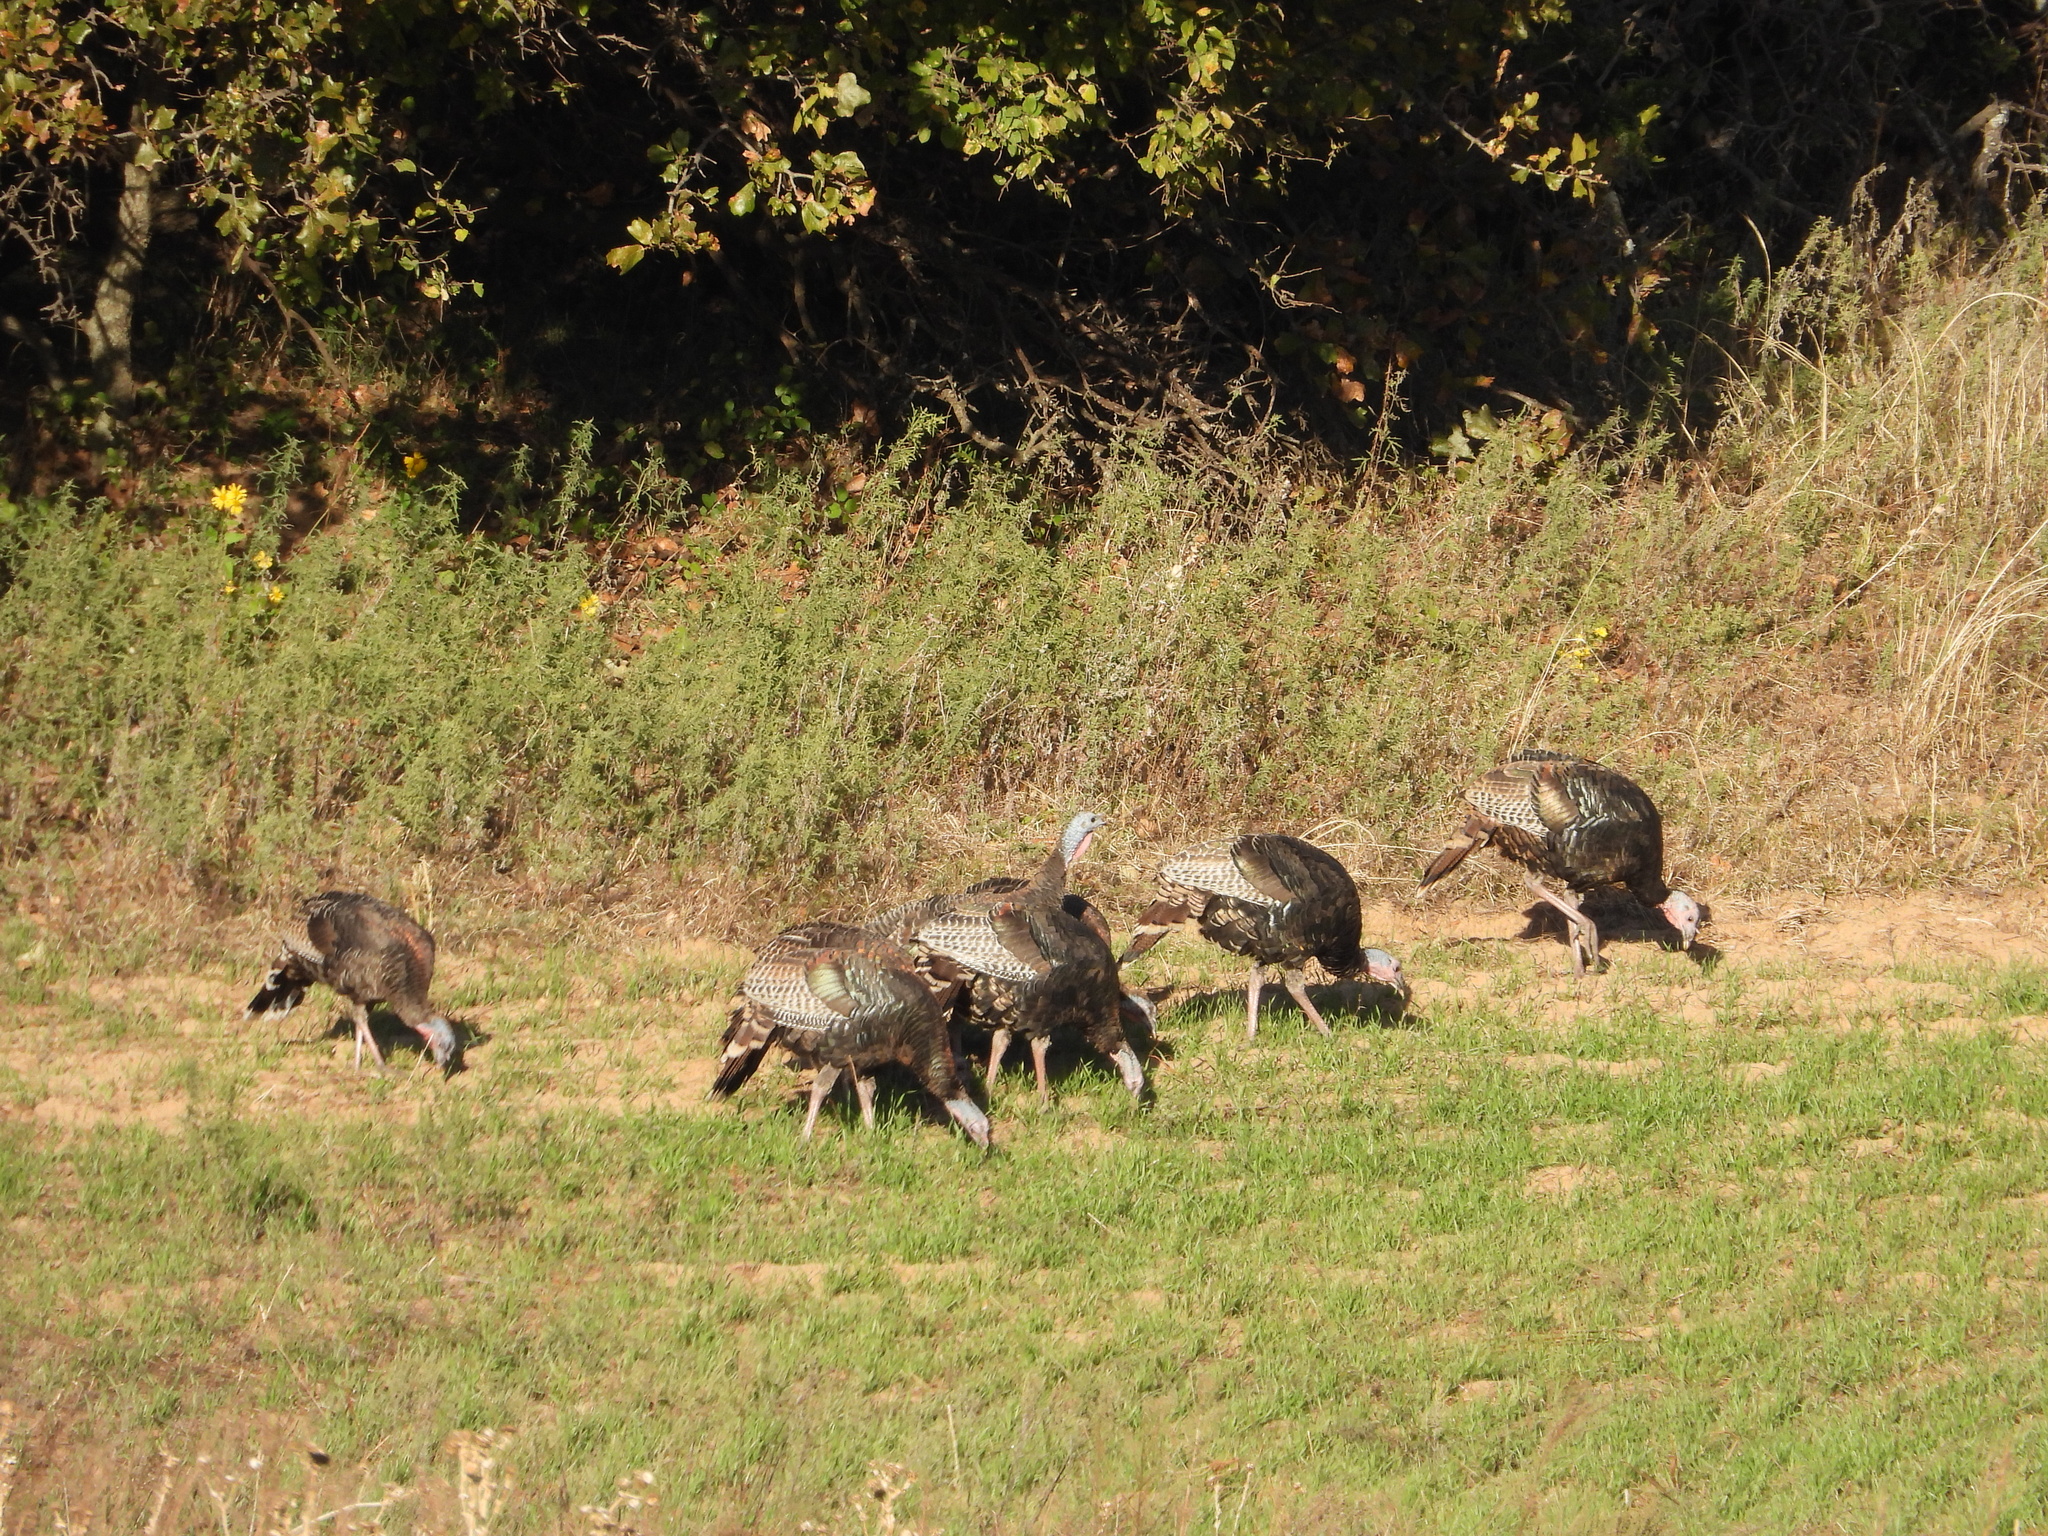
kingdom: Animalia
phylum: Chordata
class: Aves
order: Galliformes
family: Phasianidae
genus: Meleagris
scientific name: Meleagris gallopavo
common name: Wild turkey
